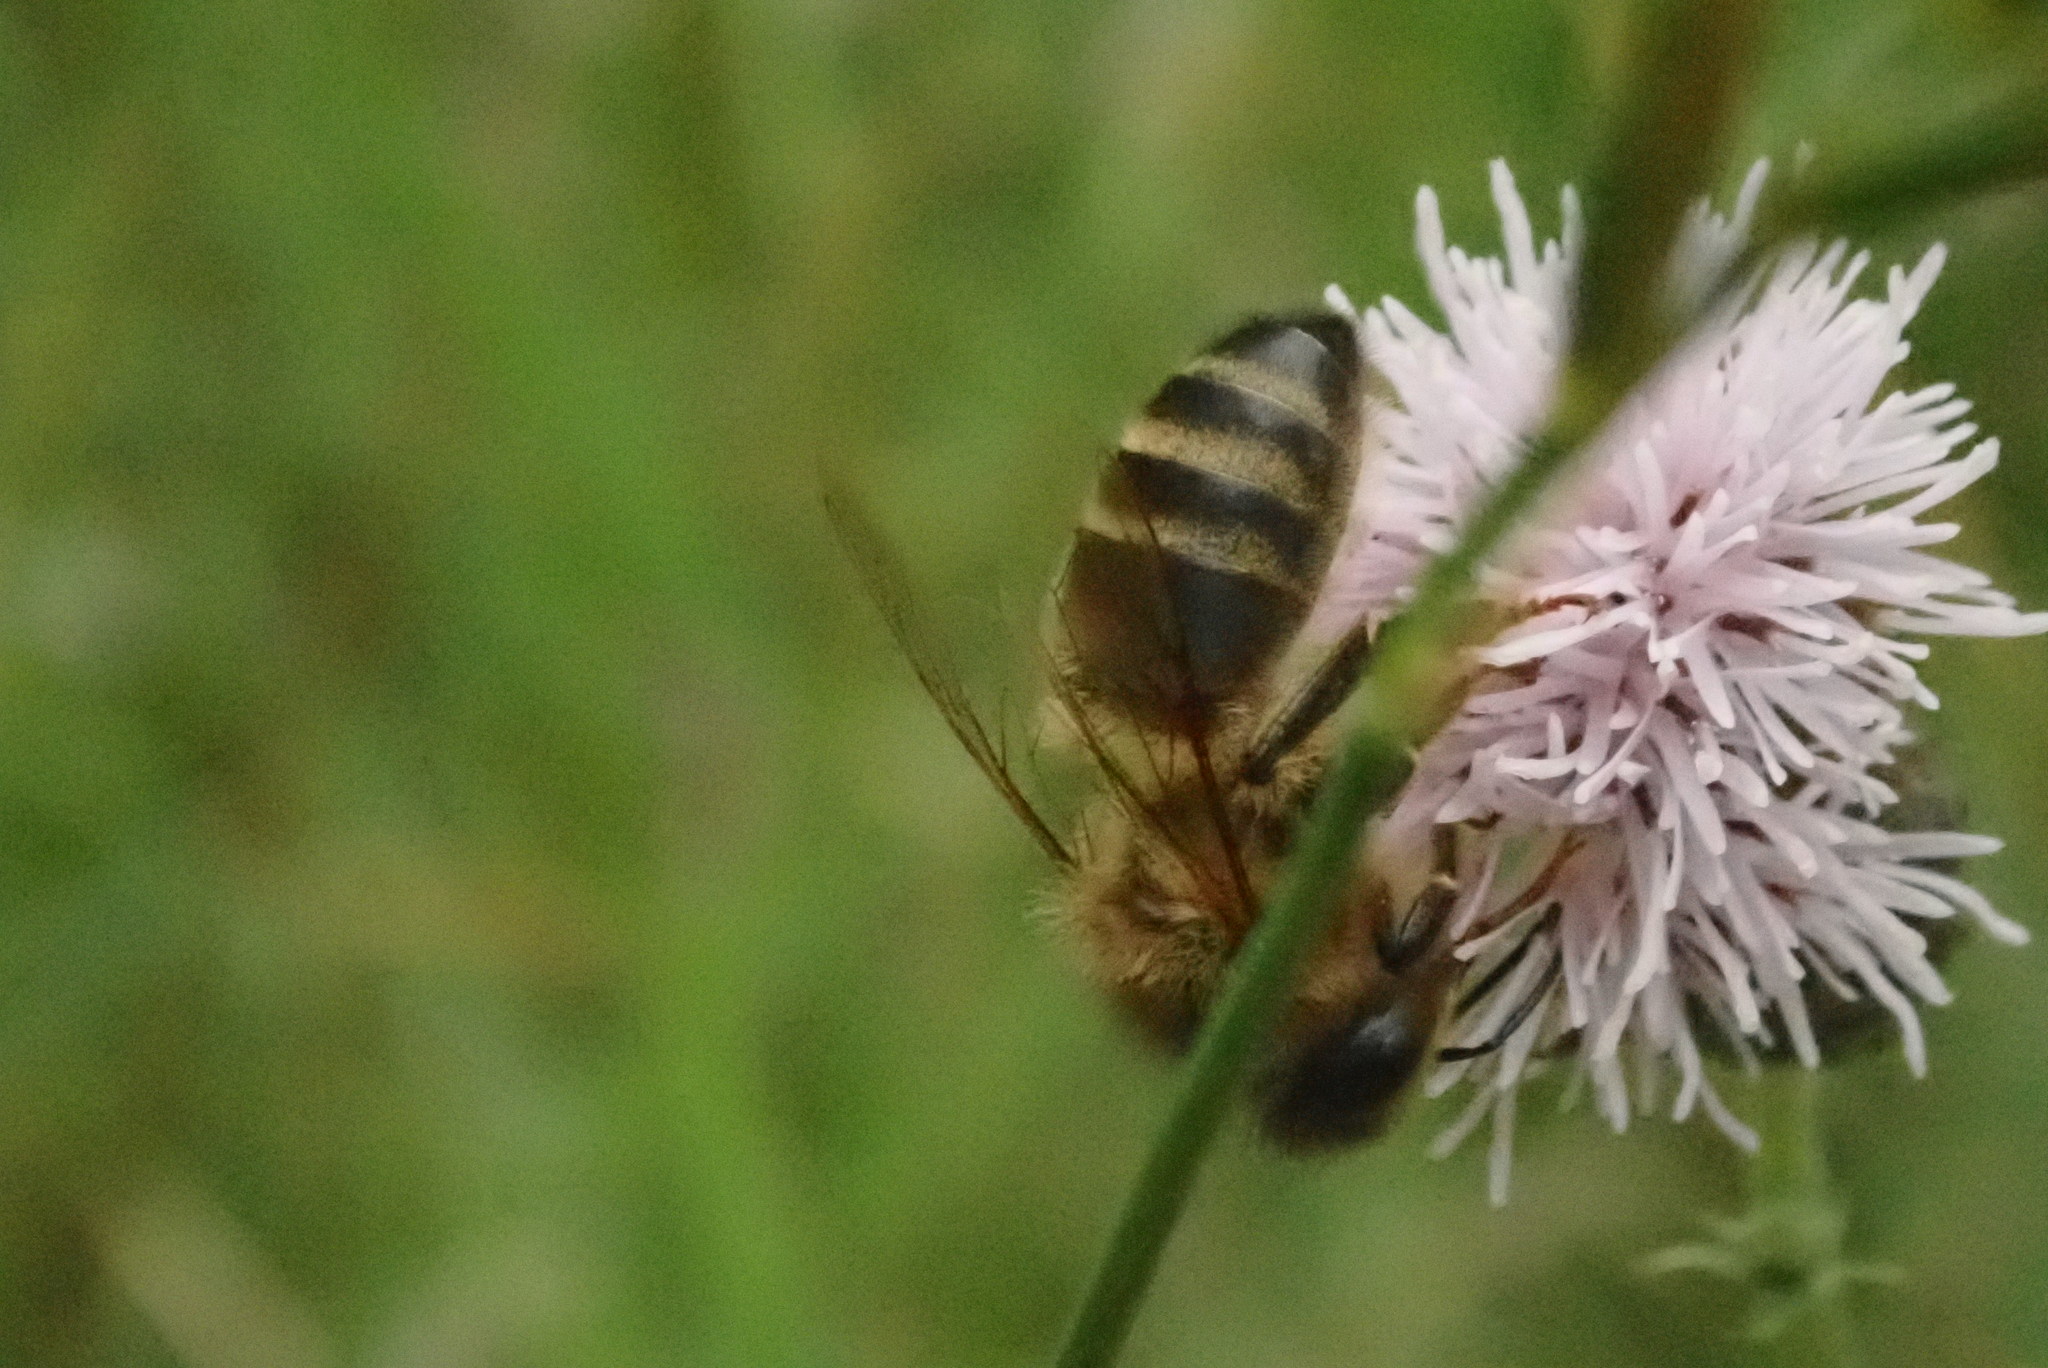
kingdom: Animalia
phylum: Arthropoda
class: Insecta
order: Hymenoptera
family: Apidae
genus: Apis
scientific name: Apis mellifera
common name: Honey bee
